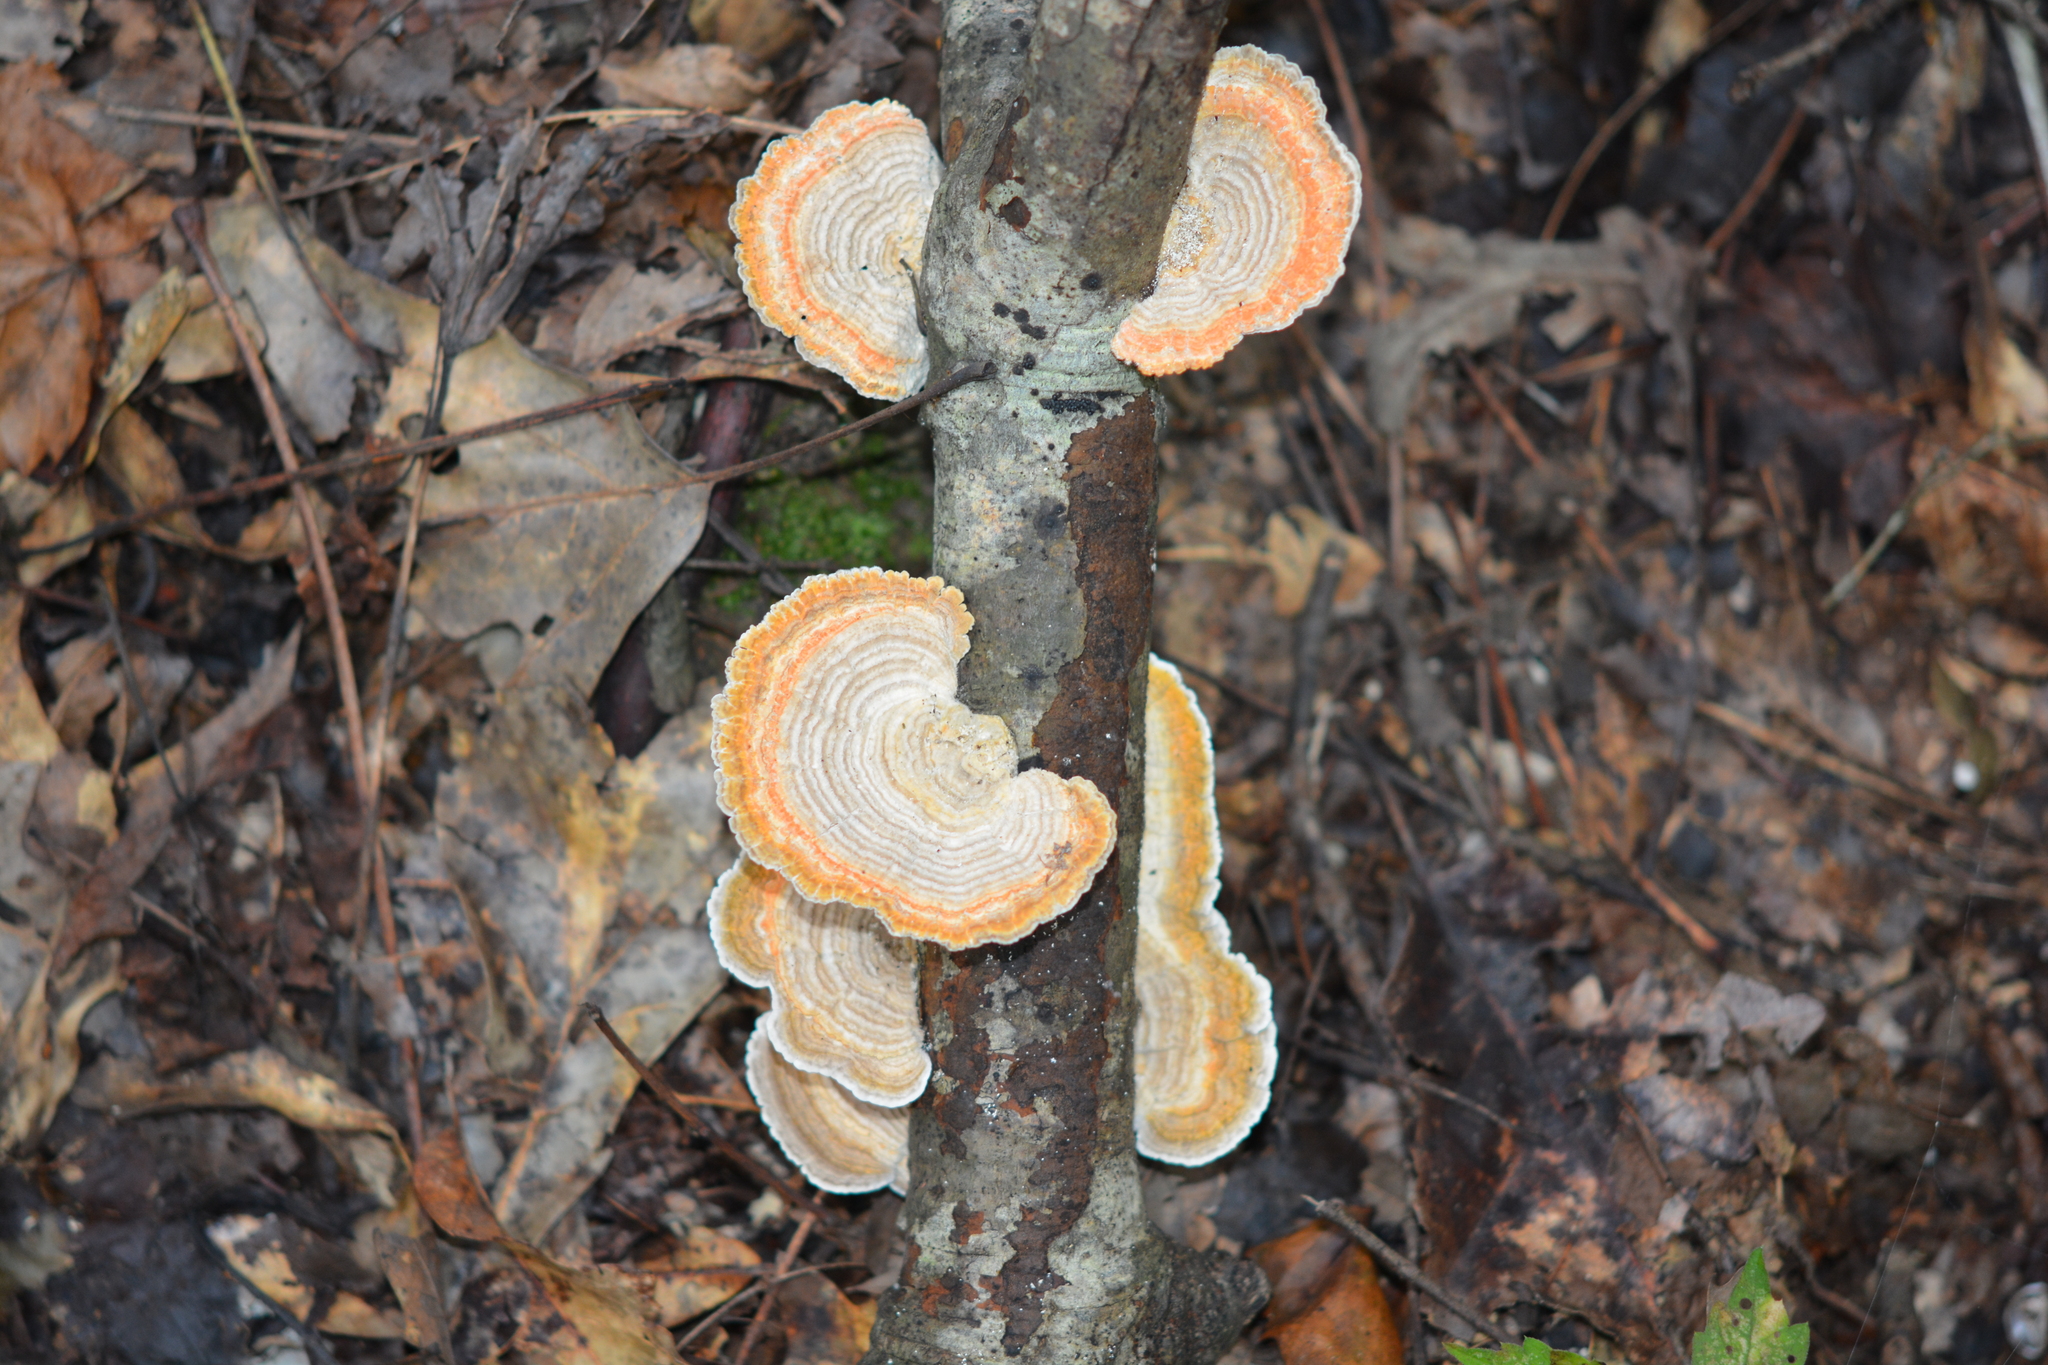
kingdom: Fungi
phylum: Basidiomycota
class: Agaricomycetes
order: Polyporales
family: Polyporaceae
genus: Lenzites
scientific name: Lenzites betulinus
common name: Birch mazegill
